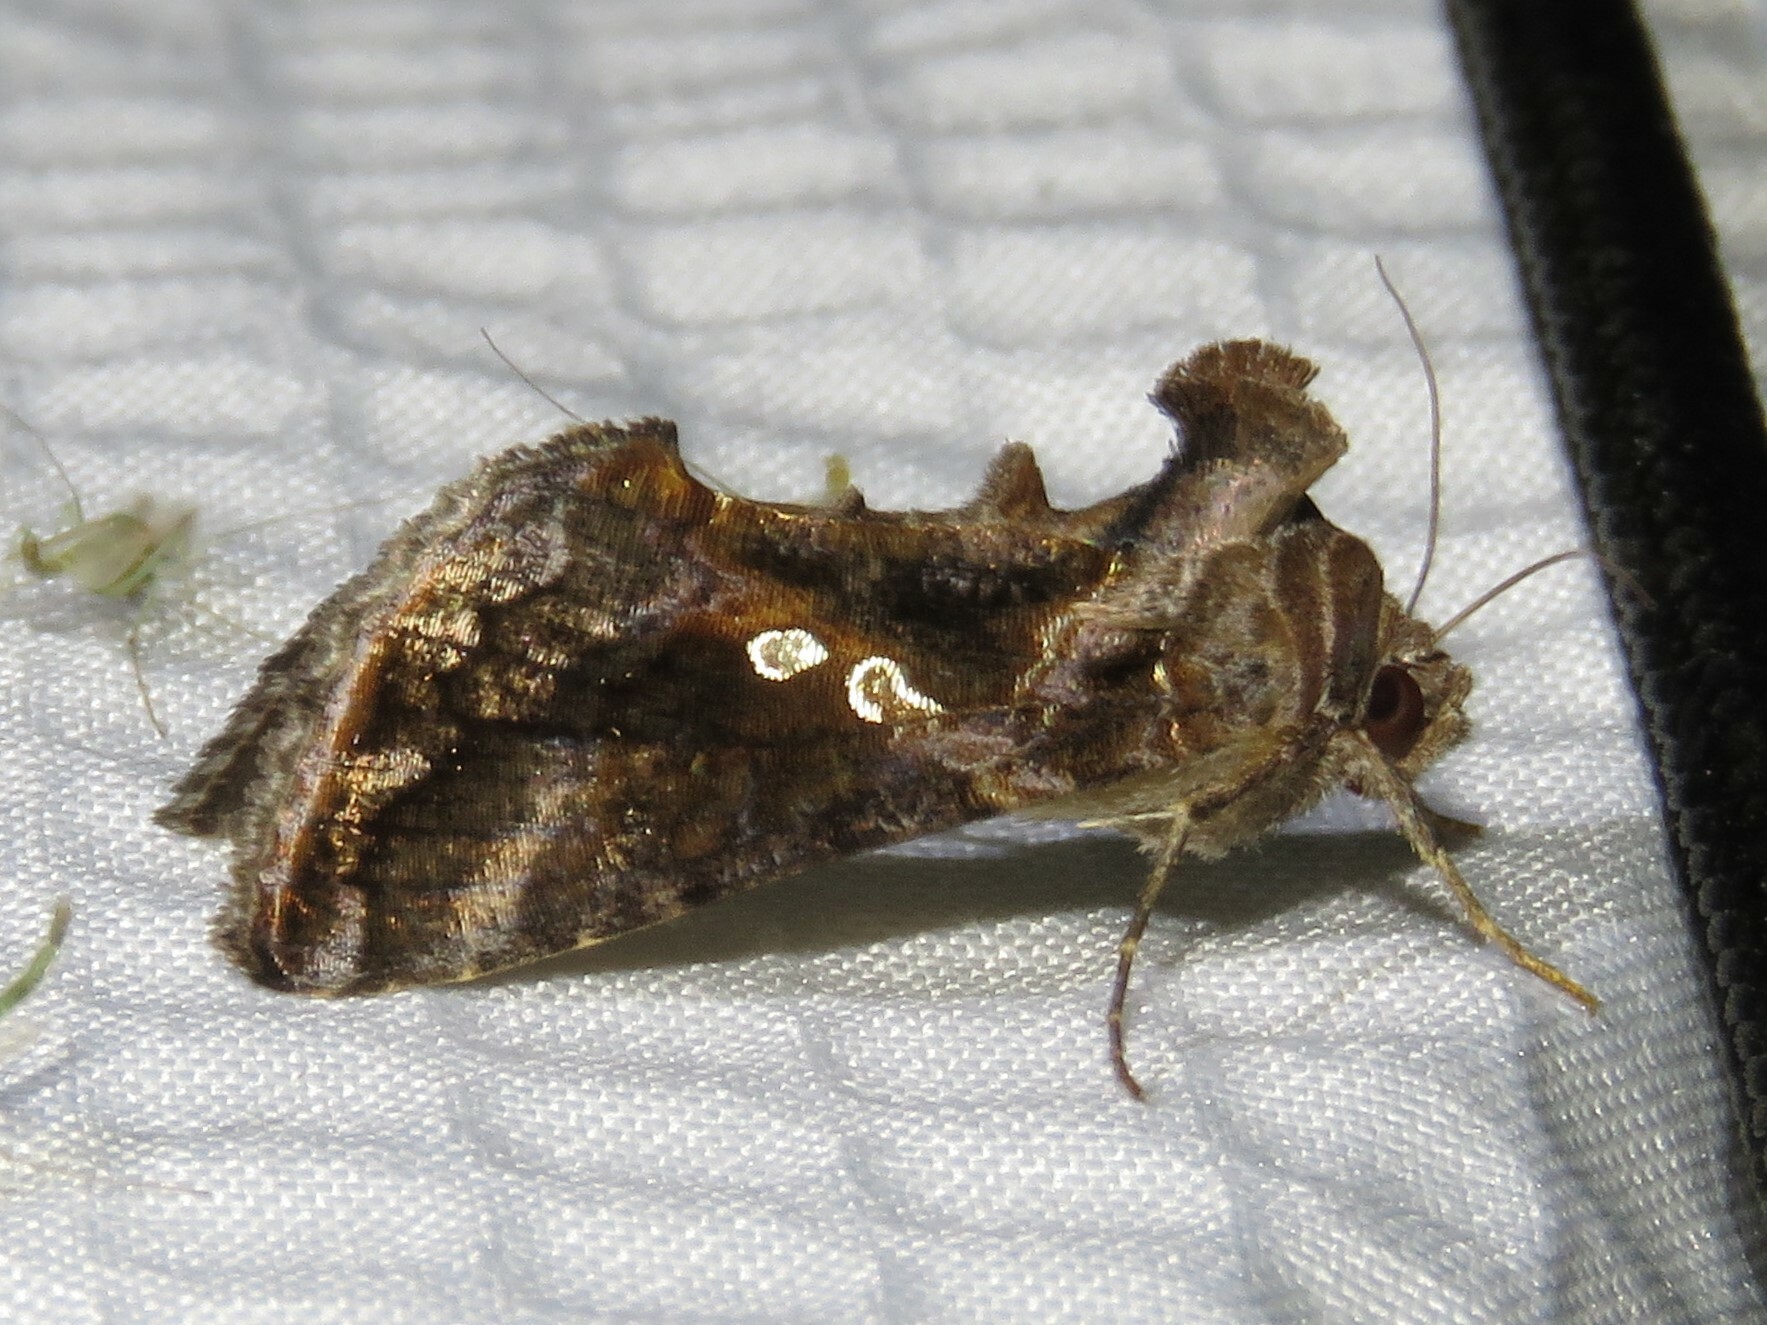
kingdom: Animalia
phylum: Arthropoda
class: Insecta
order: Lepidoptera
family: Noctuidae
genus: Chrysodeixis
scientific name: Chrysodeixis includens
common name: Cutworm moth
